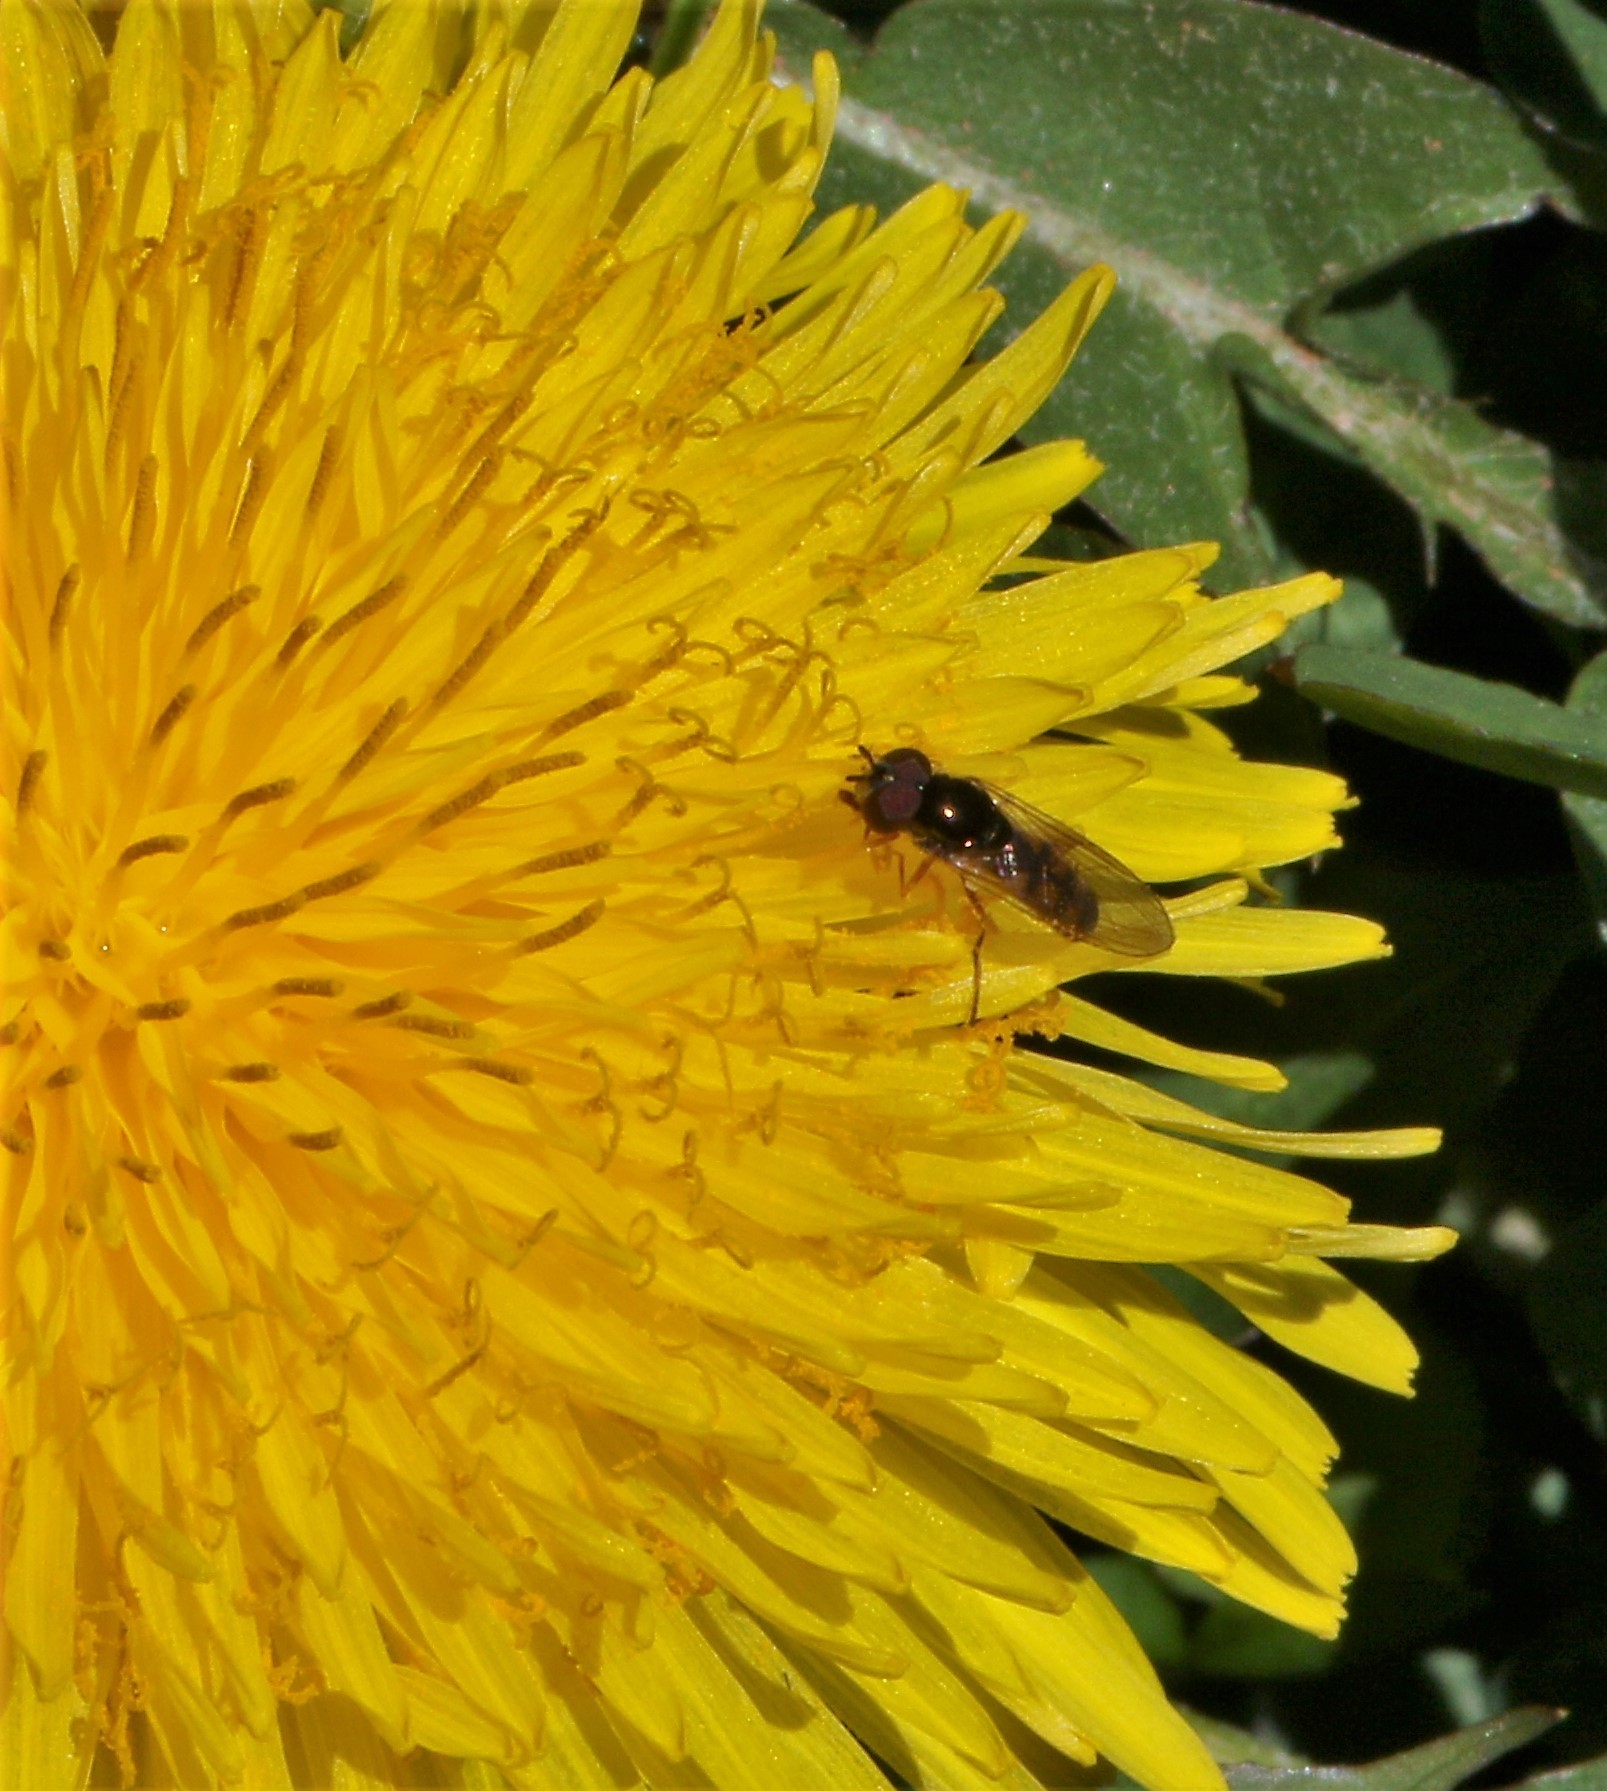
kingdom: Animalia
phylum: Arthropoda
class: Insecta
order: Diptera
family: Syrphidae
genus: Melanostoma
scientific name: Melanostoma mellina
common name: Hover fly
